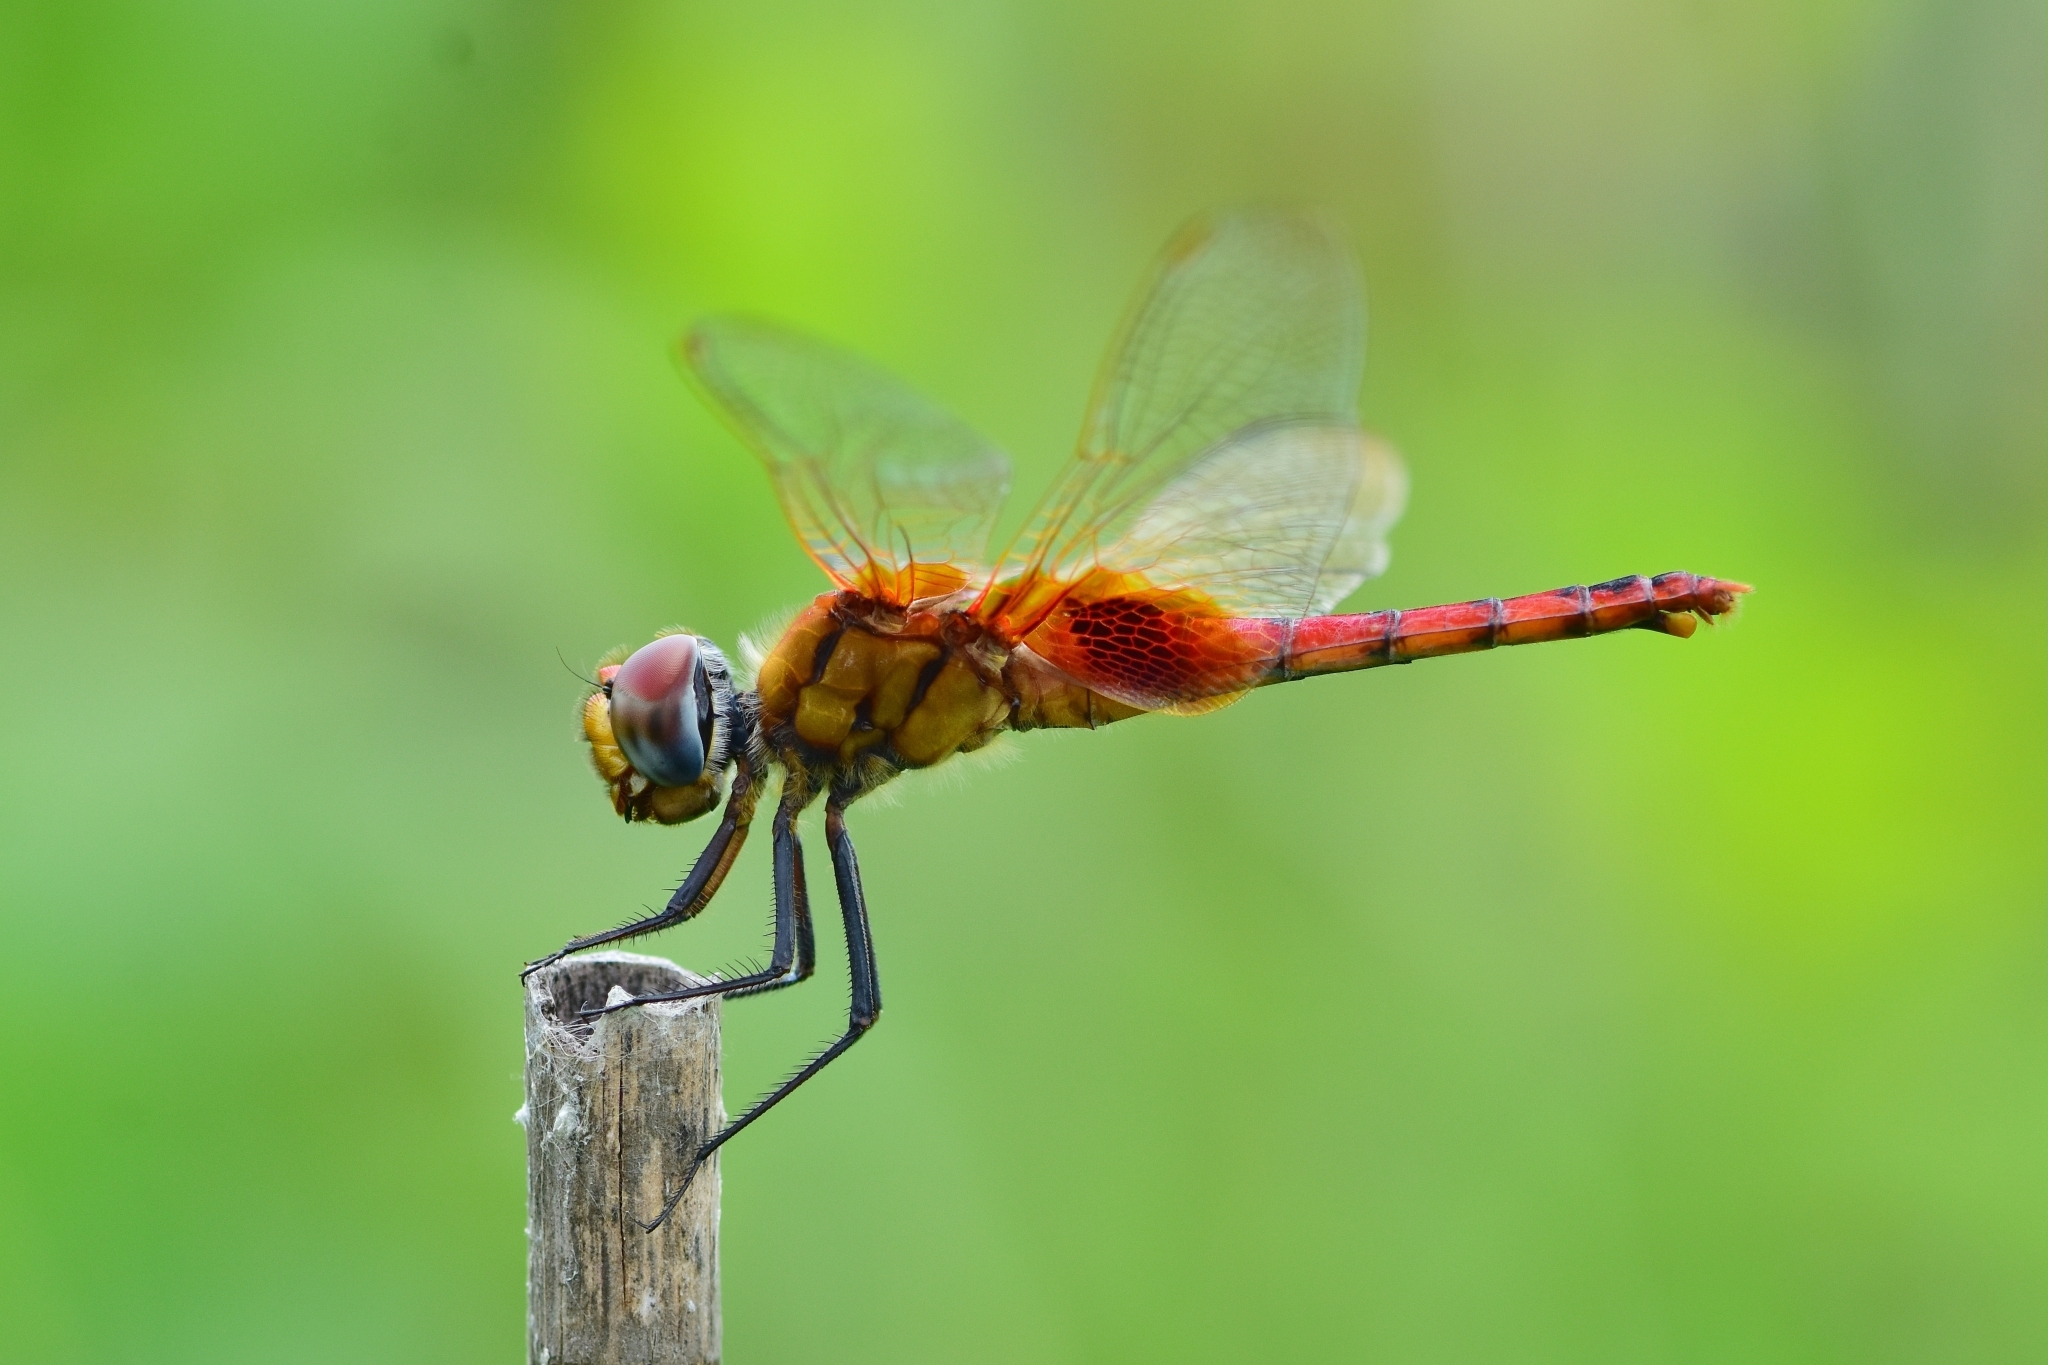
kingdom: Animalia
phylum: Arthropoda
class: Insecta
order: Odonata
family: Libellulidae
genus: Urothemis
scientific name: Urothemis signata
